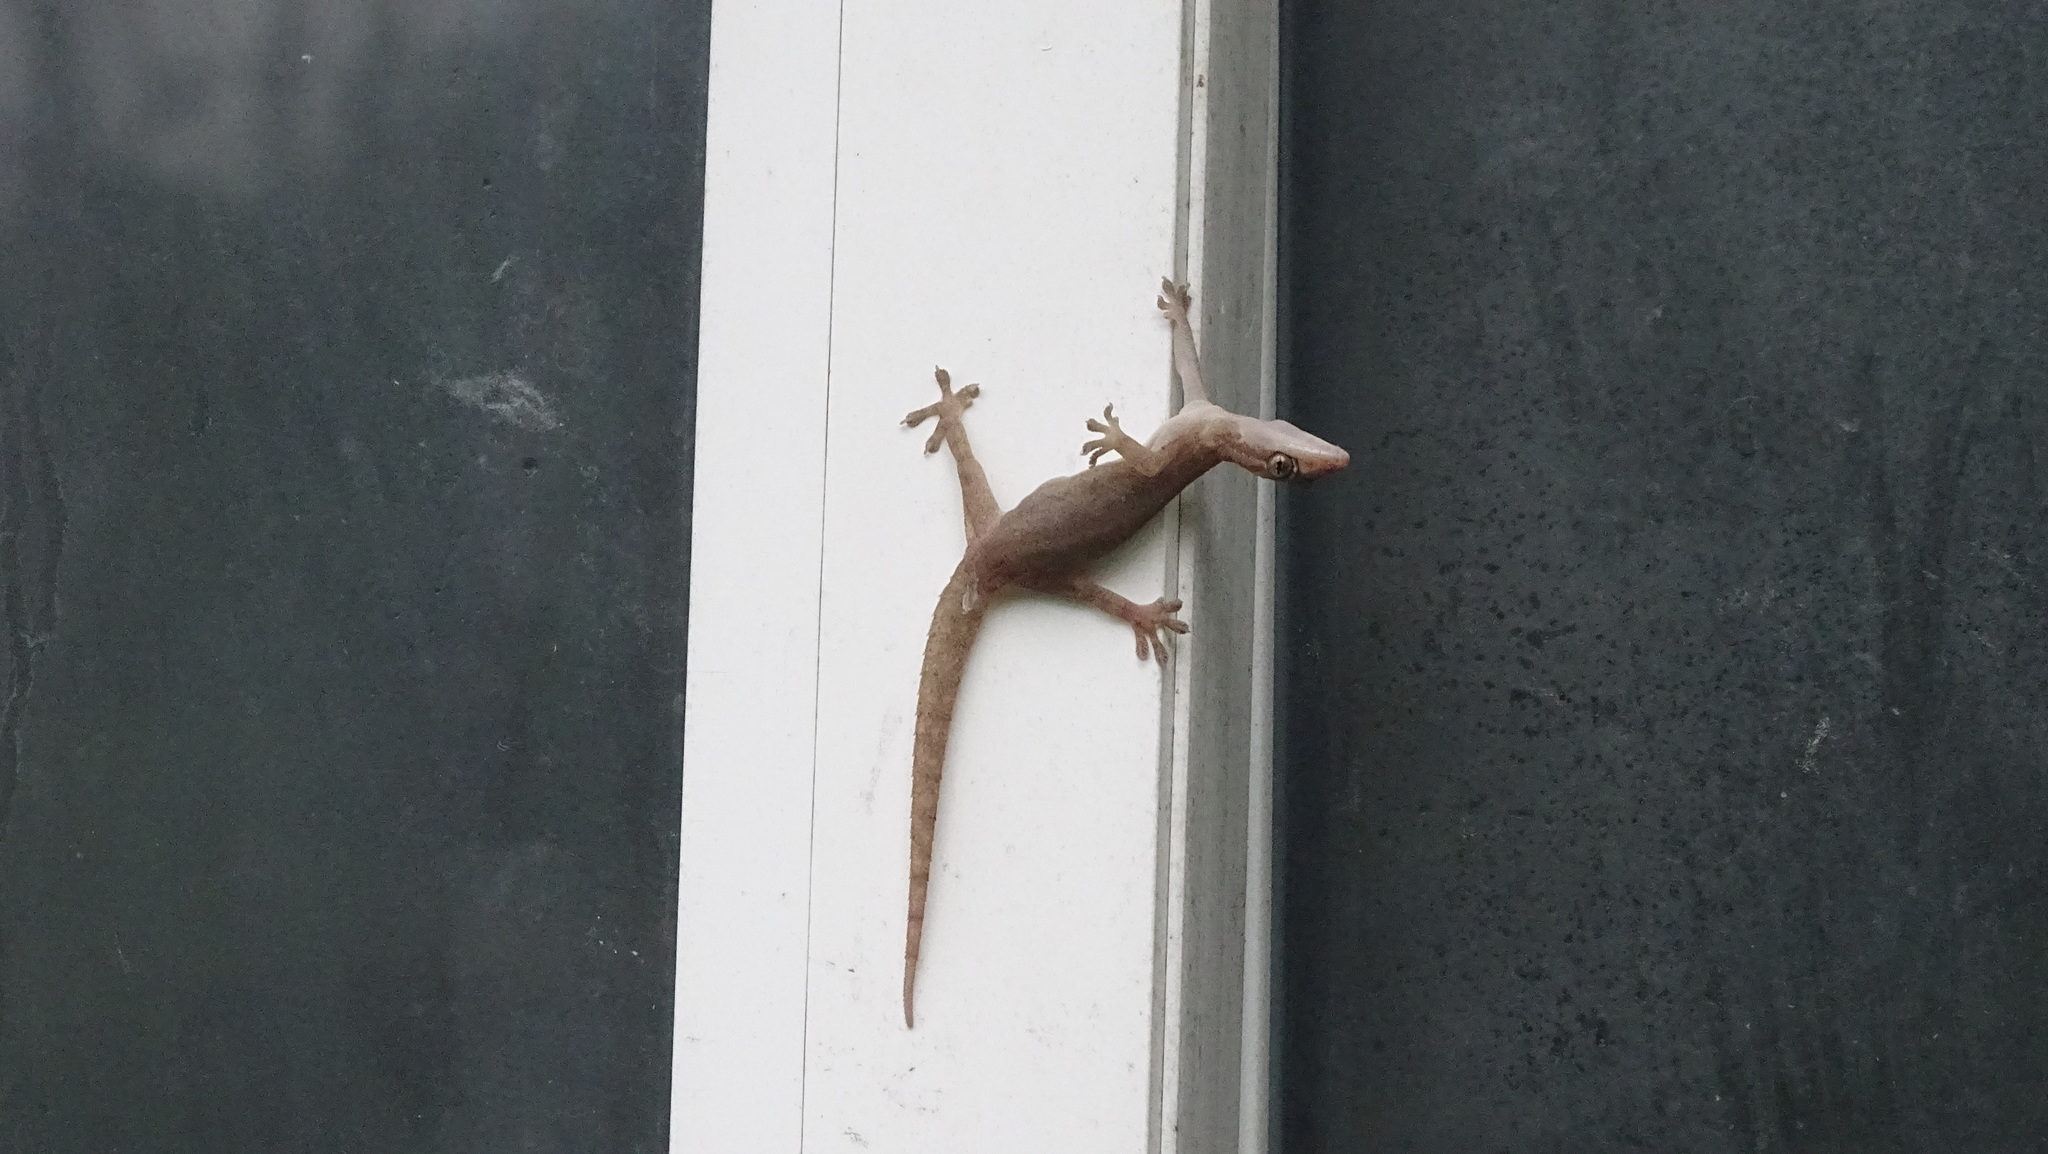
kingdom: Animalia
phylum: Chordata
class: Squamata
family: Gekkonidae
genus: Hemidactylus
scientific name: Hemidactylus frenatus
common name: Common house gecko
